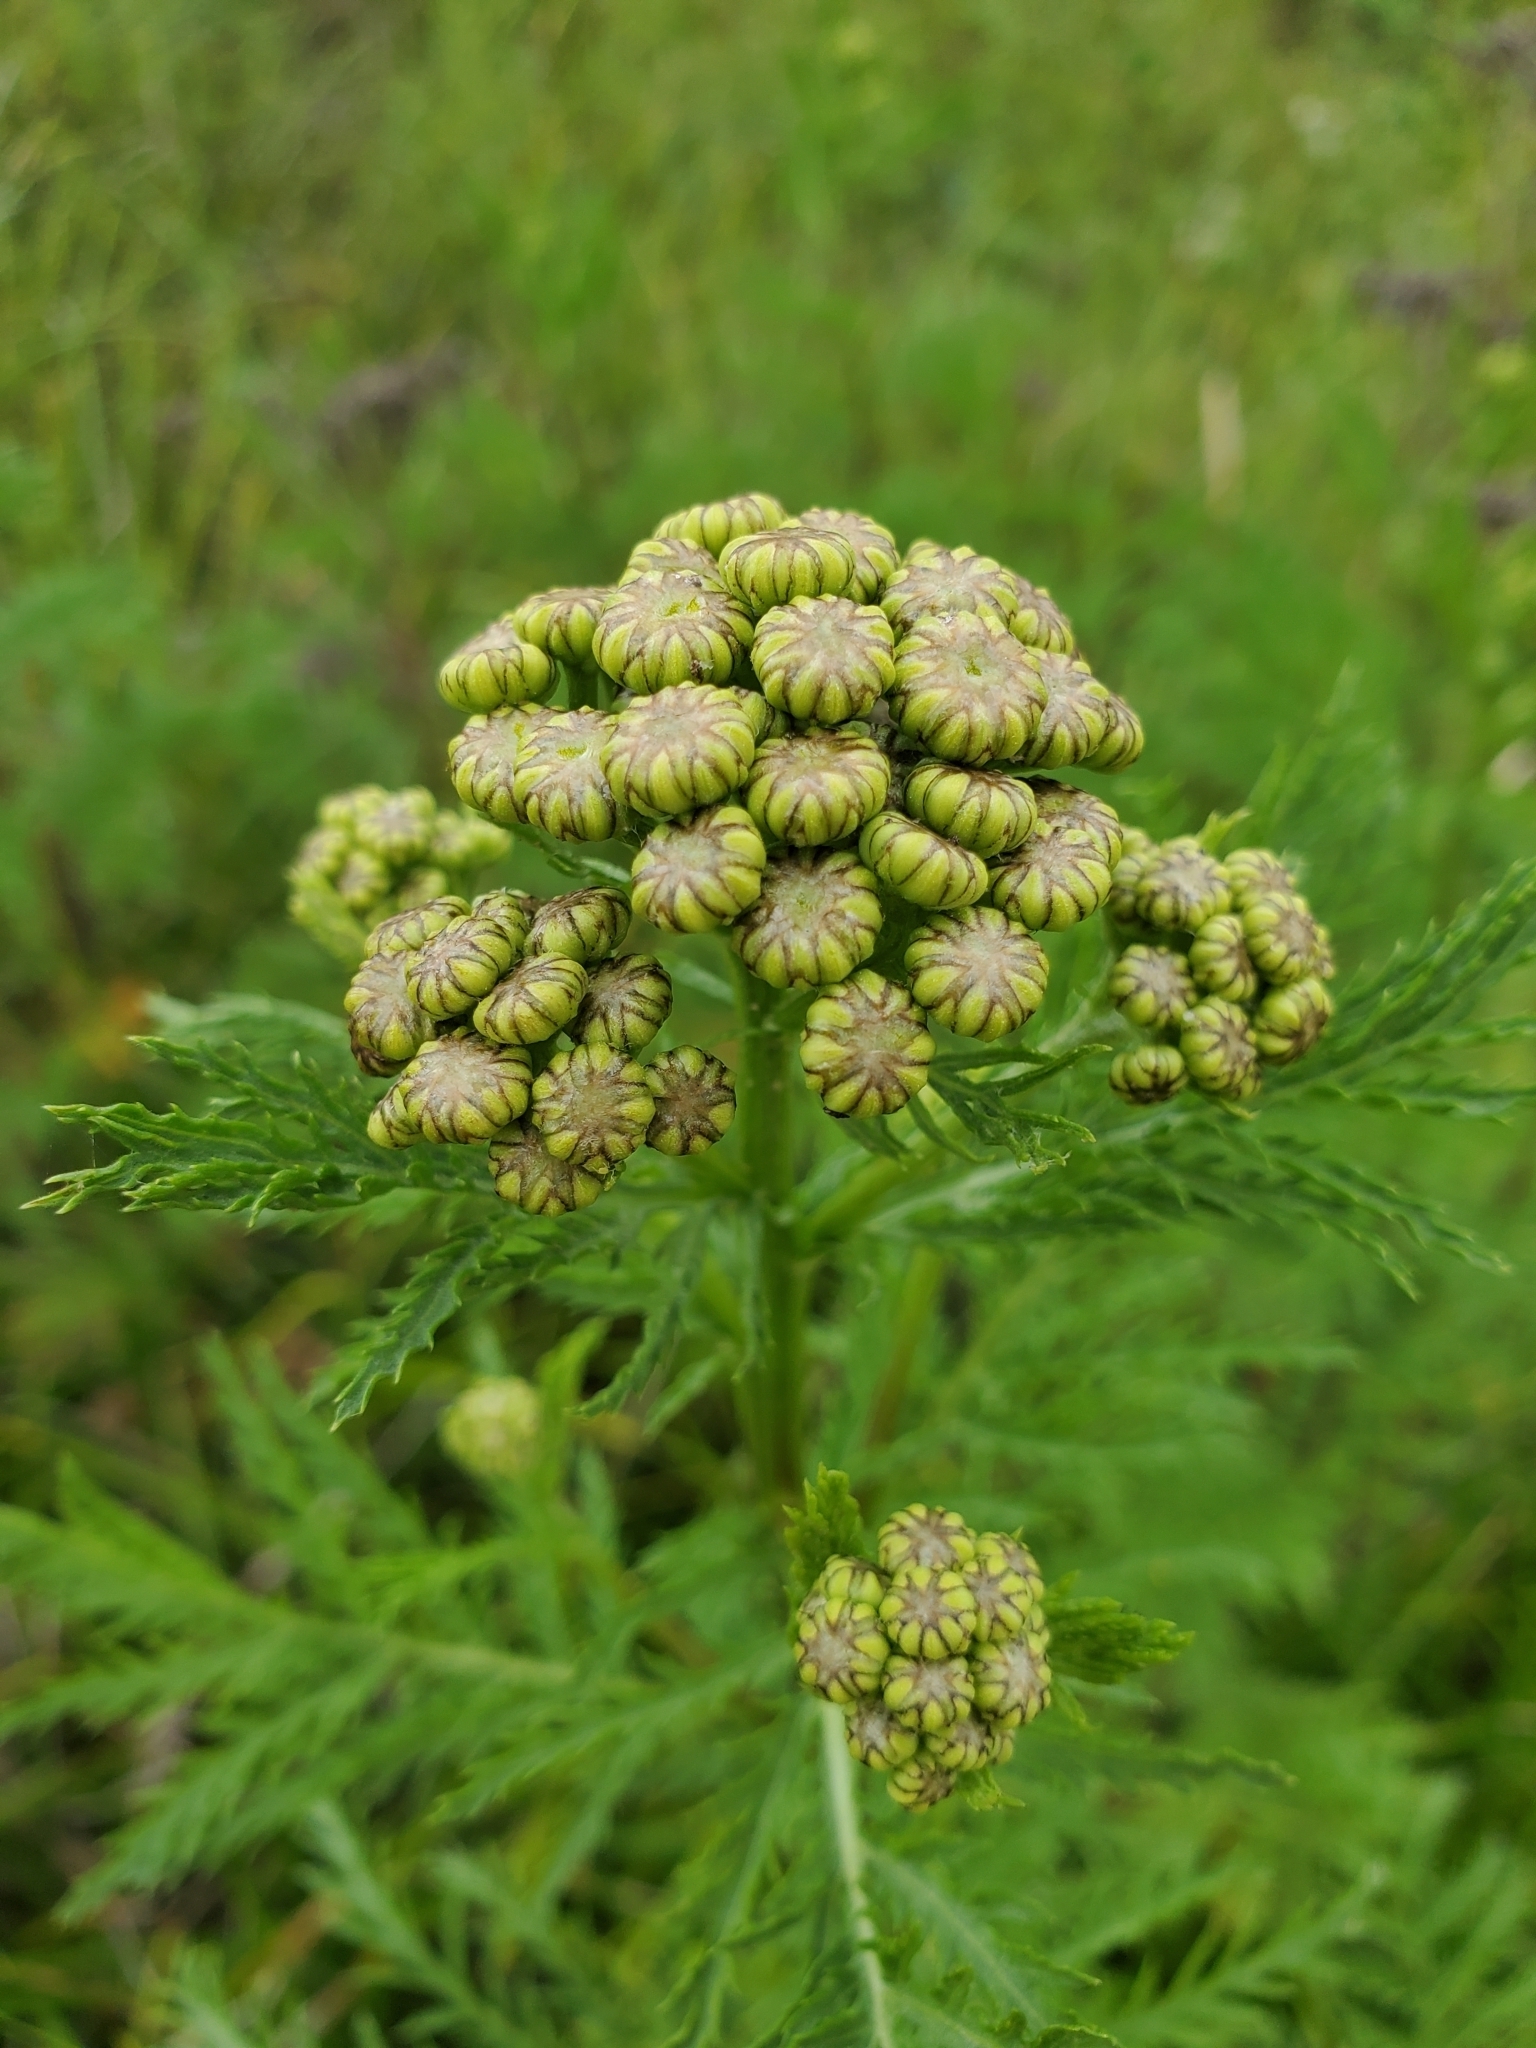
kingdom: Plantae
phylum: Tracheophyta
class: Magnoliopsida
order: Asterales
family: Asteraceae
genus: Tanacetum
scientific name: Tanacetum vulgare
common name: Common tansy
